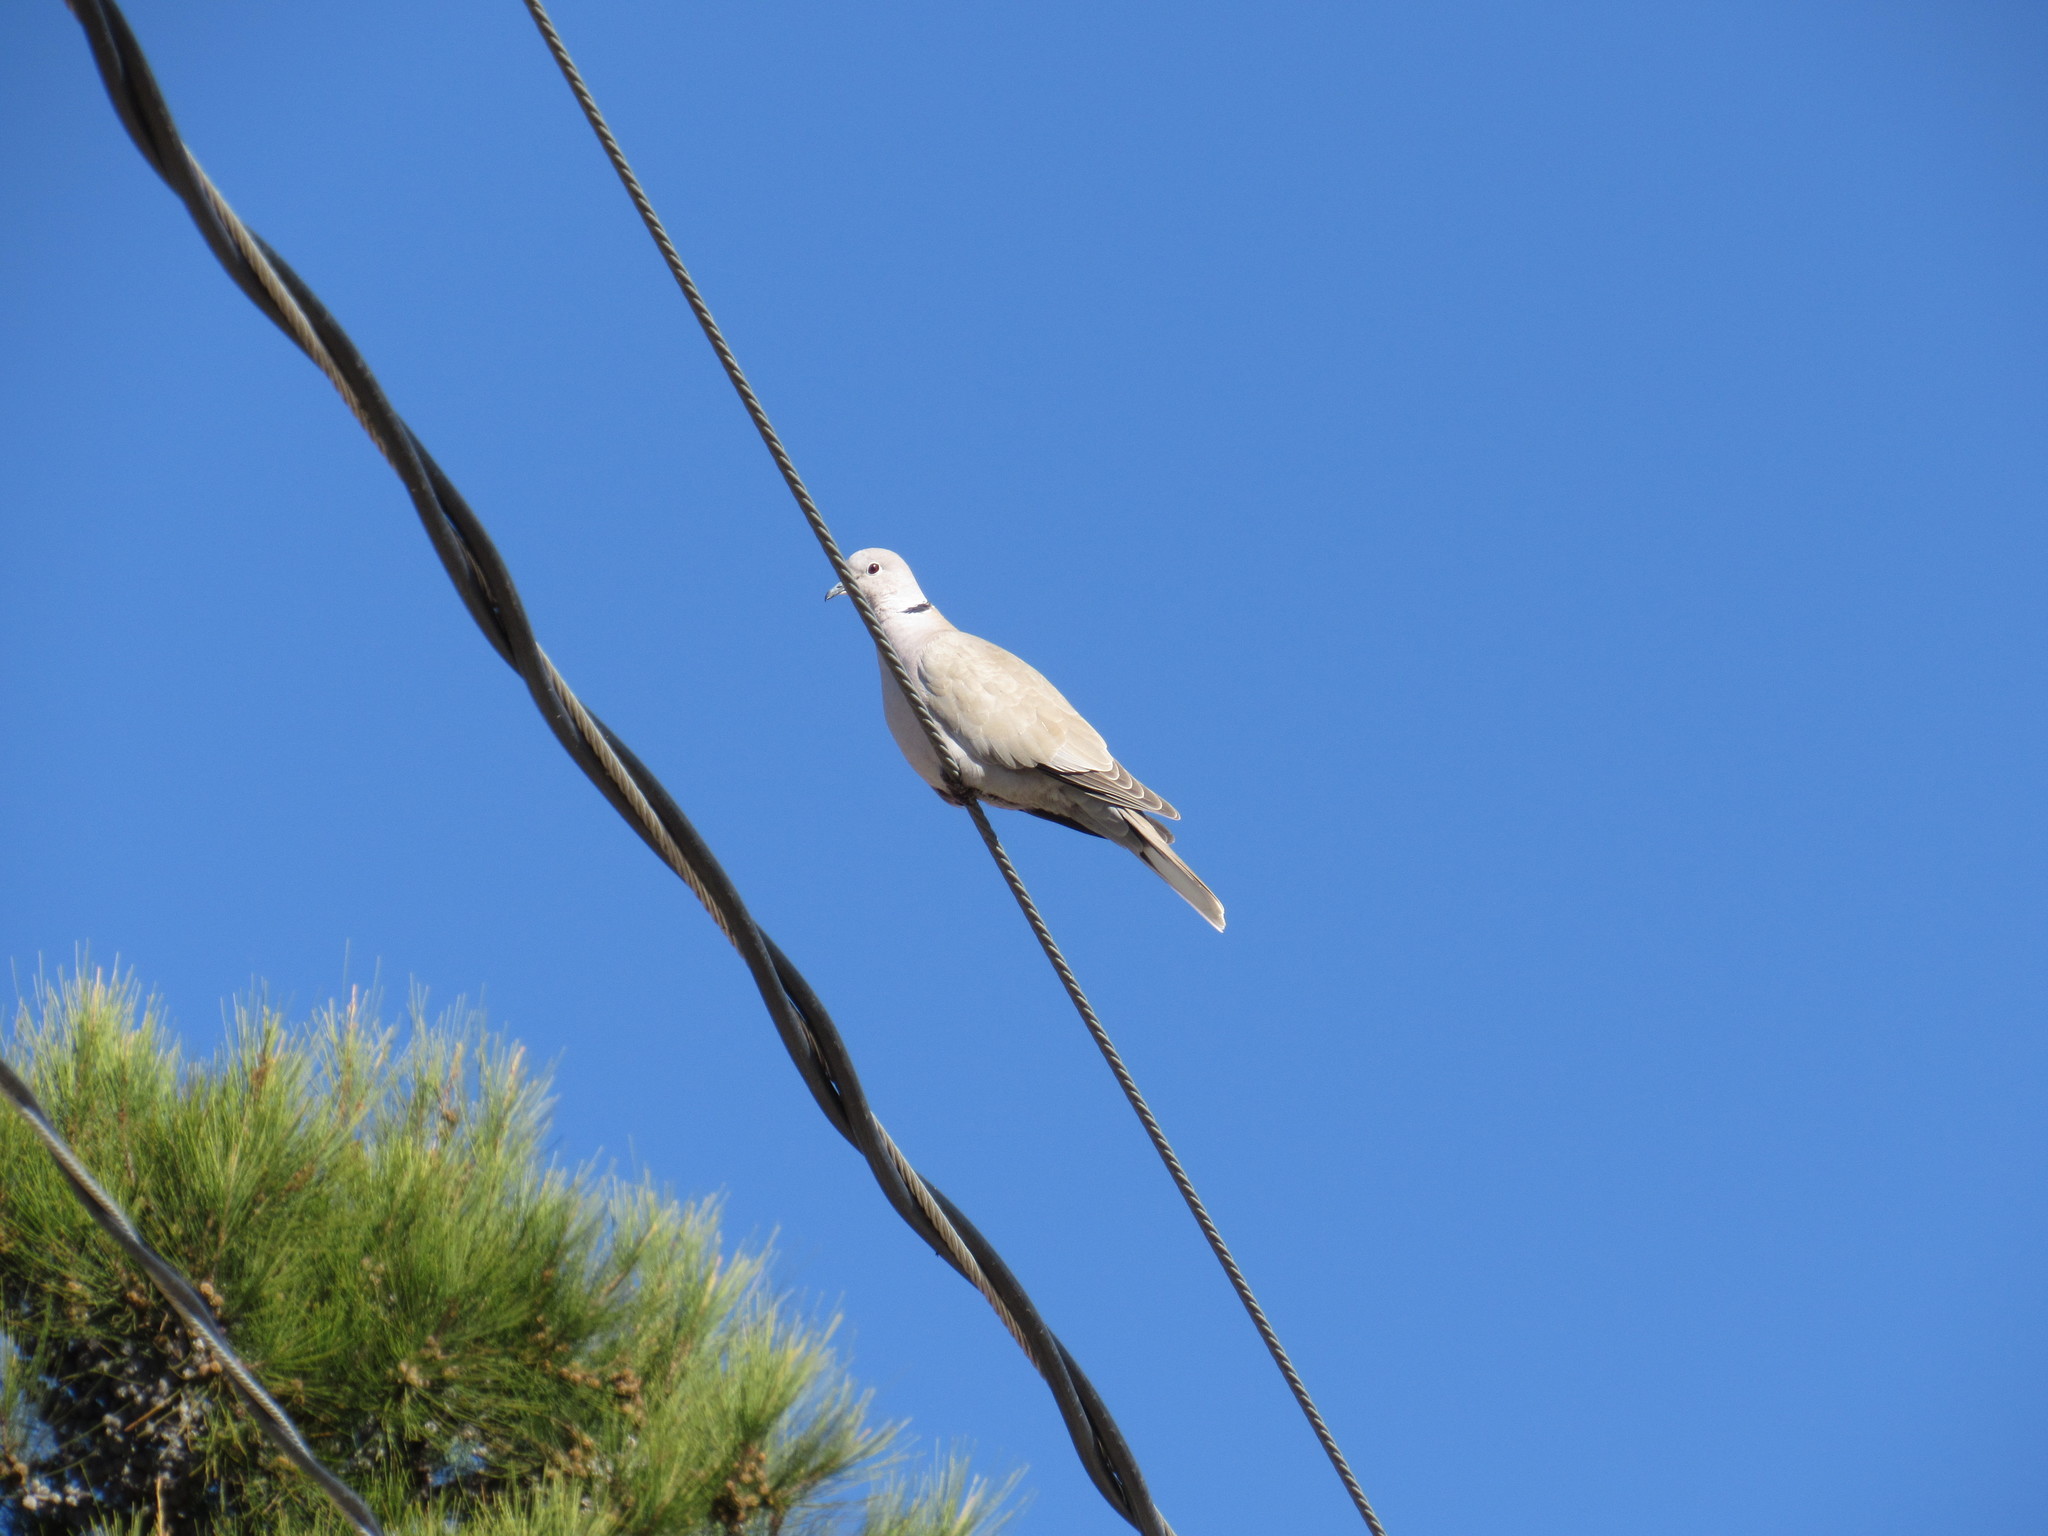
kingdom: Animalia
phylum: Chordata
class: Aves
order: Columbiformes
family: Columbidae
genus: Streptopelia
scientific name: Streptopelia decaocto
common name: Eurasian collared dove
